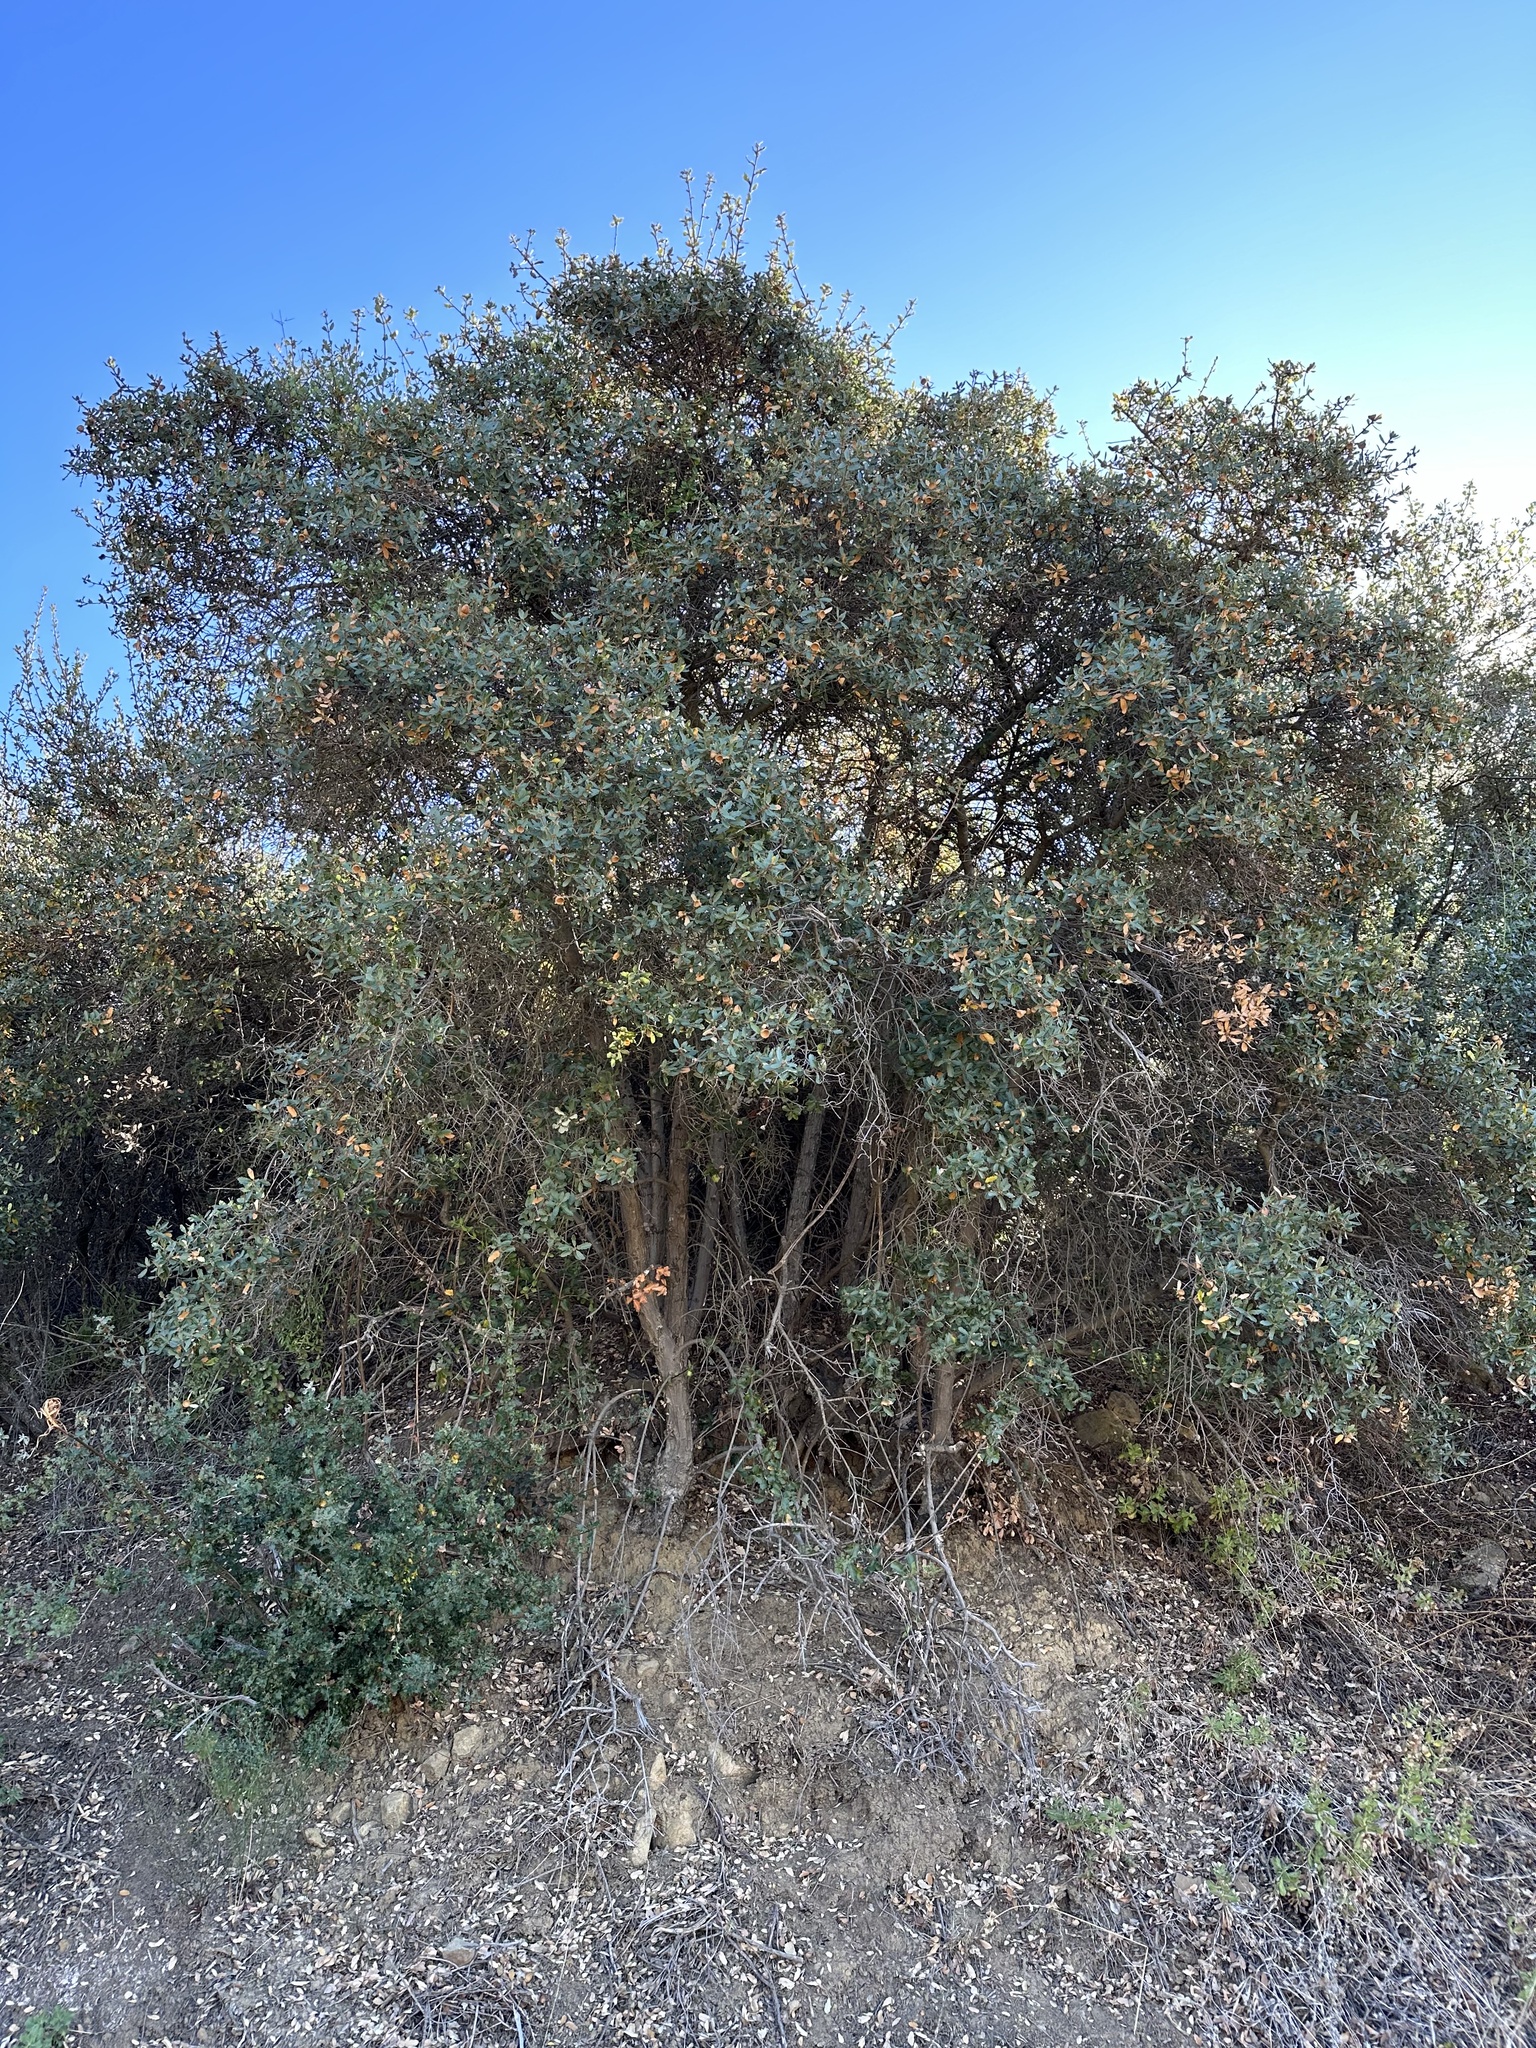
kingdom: Plantae
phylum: Tracheophyta
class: Magnoliopsida
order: Fagales
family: Fagaceae
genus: Quercus
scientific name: Quercus berberidifolia
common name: California scrub oak
